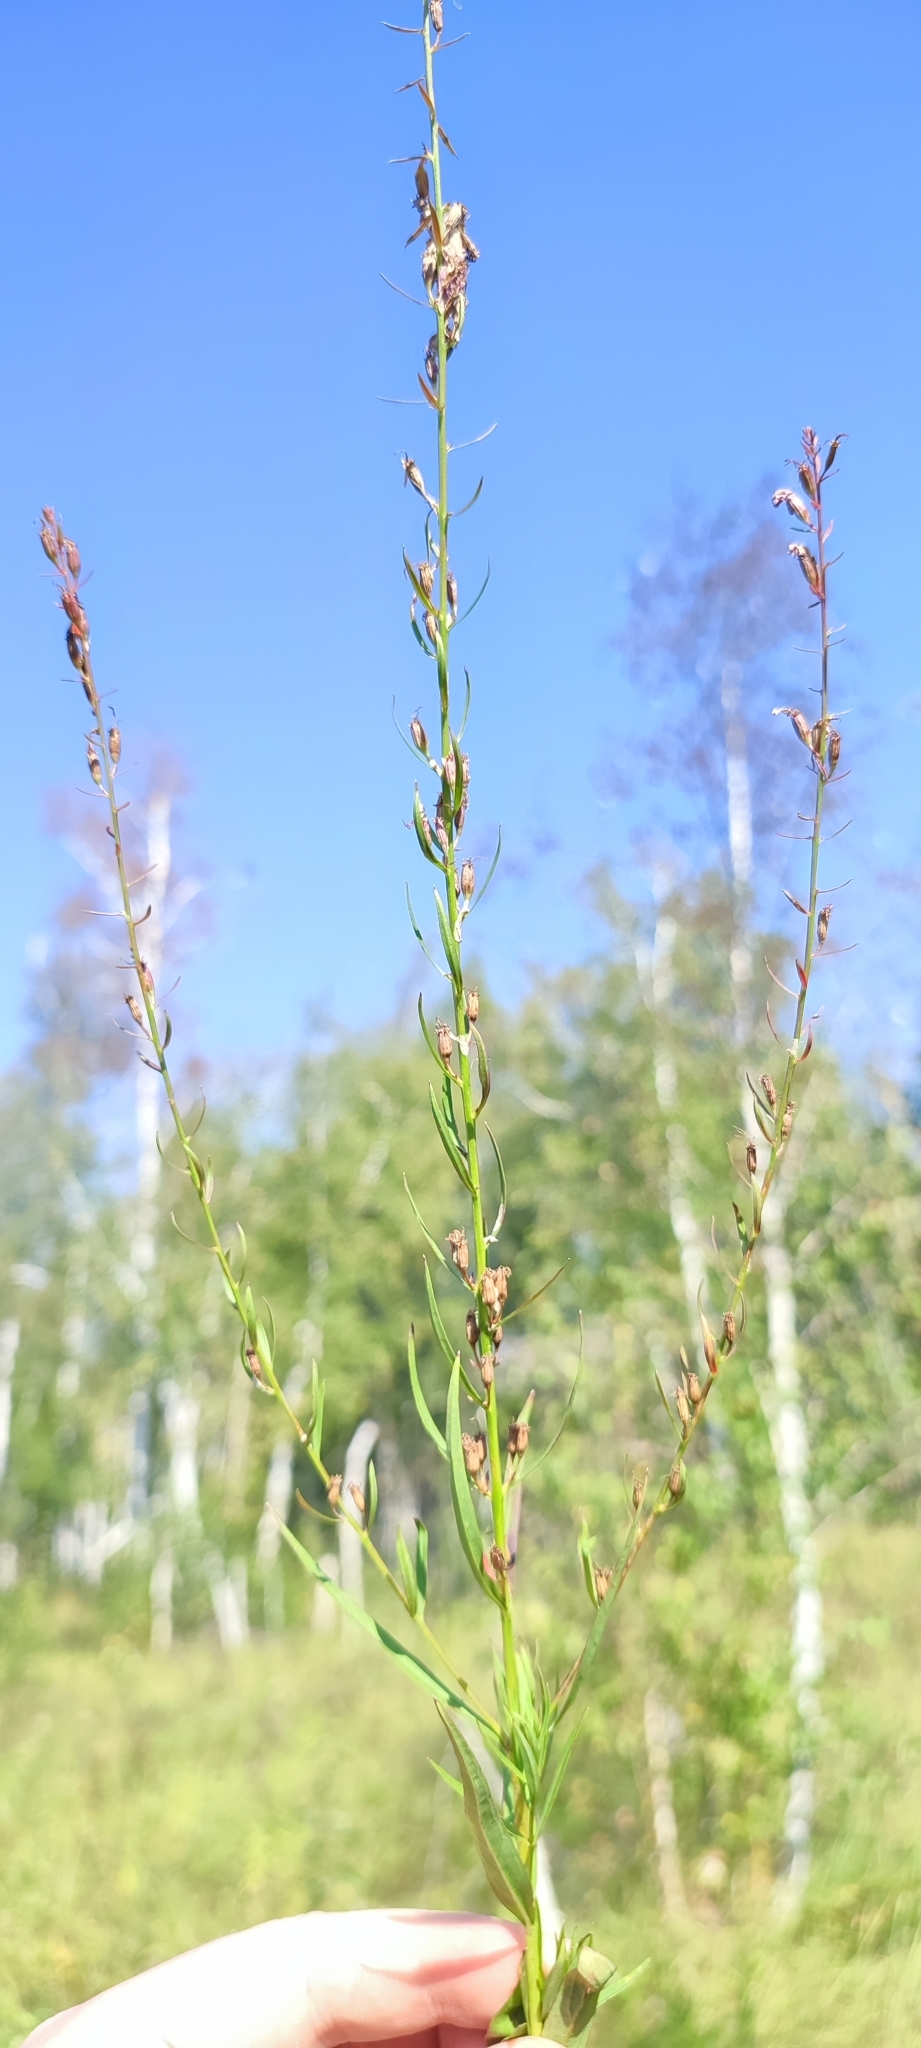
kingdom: Plantae
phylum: Tracheophyta
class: Magnoliopsida
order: Myrtales
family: Lythraceae
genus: Lythrum
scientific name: Lythrum virgatum
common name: European wand loosestrife
